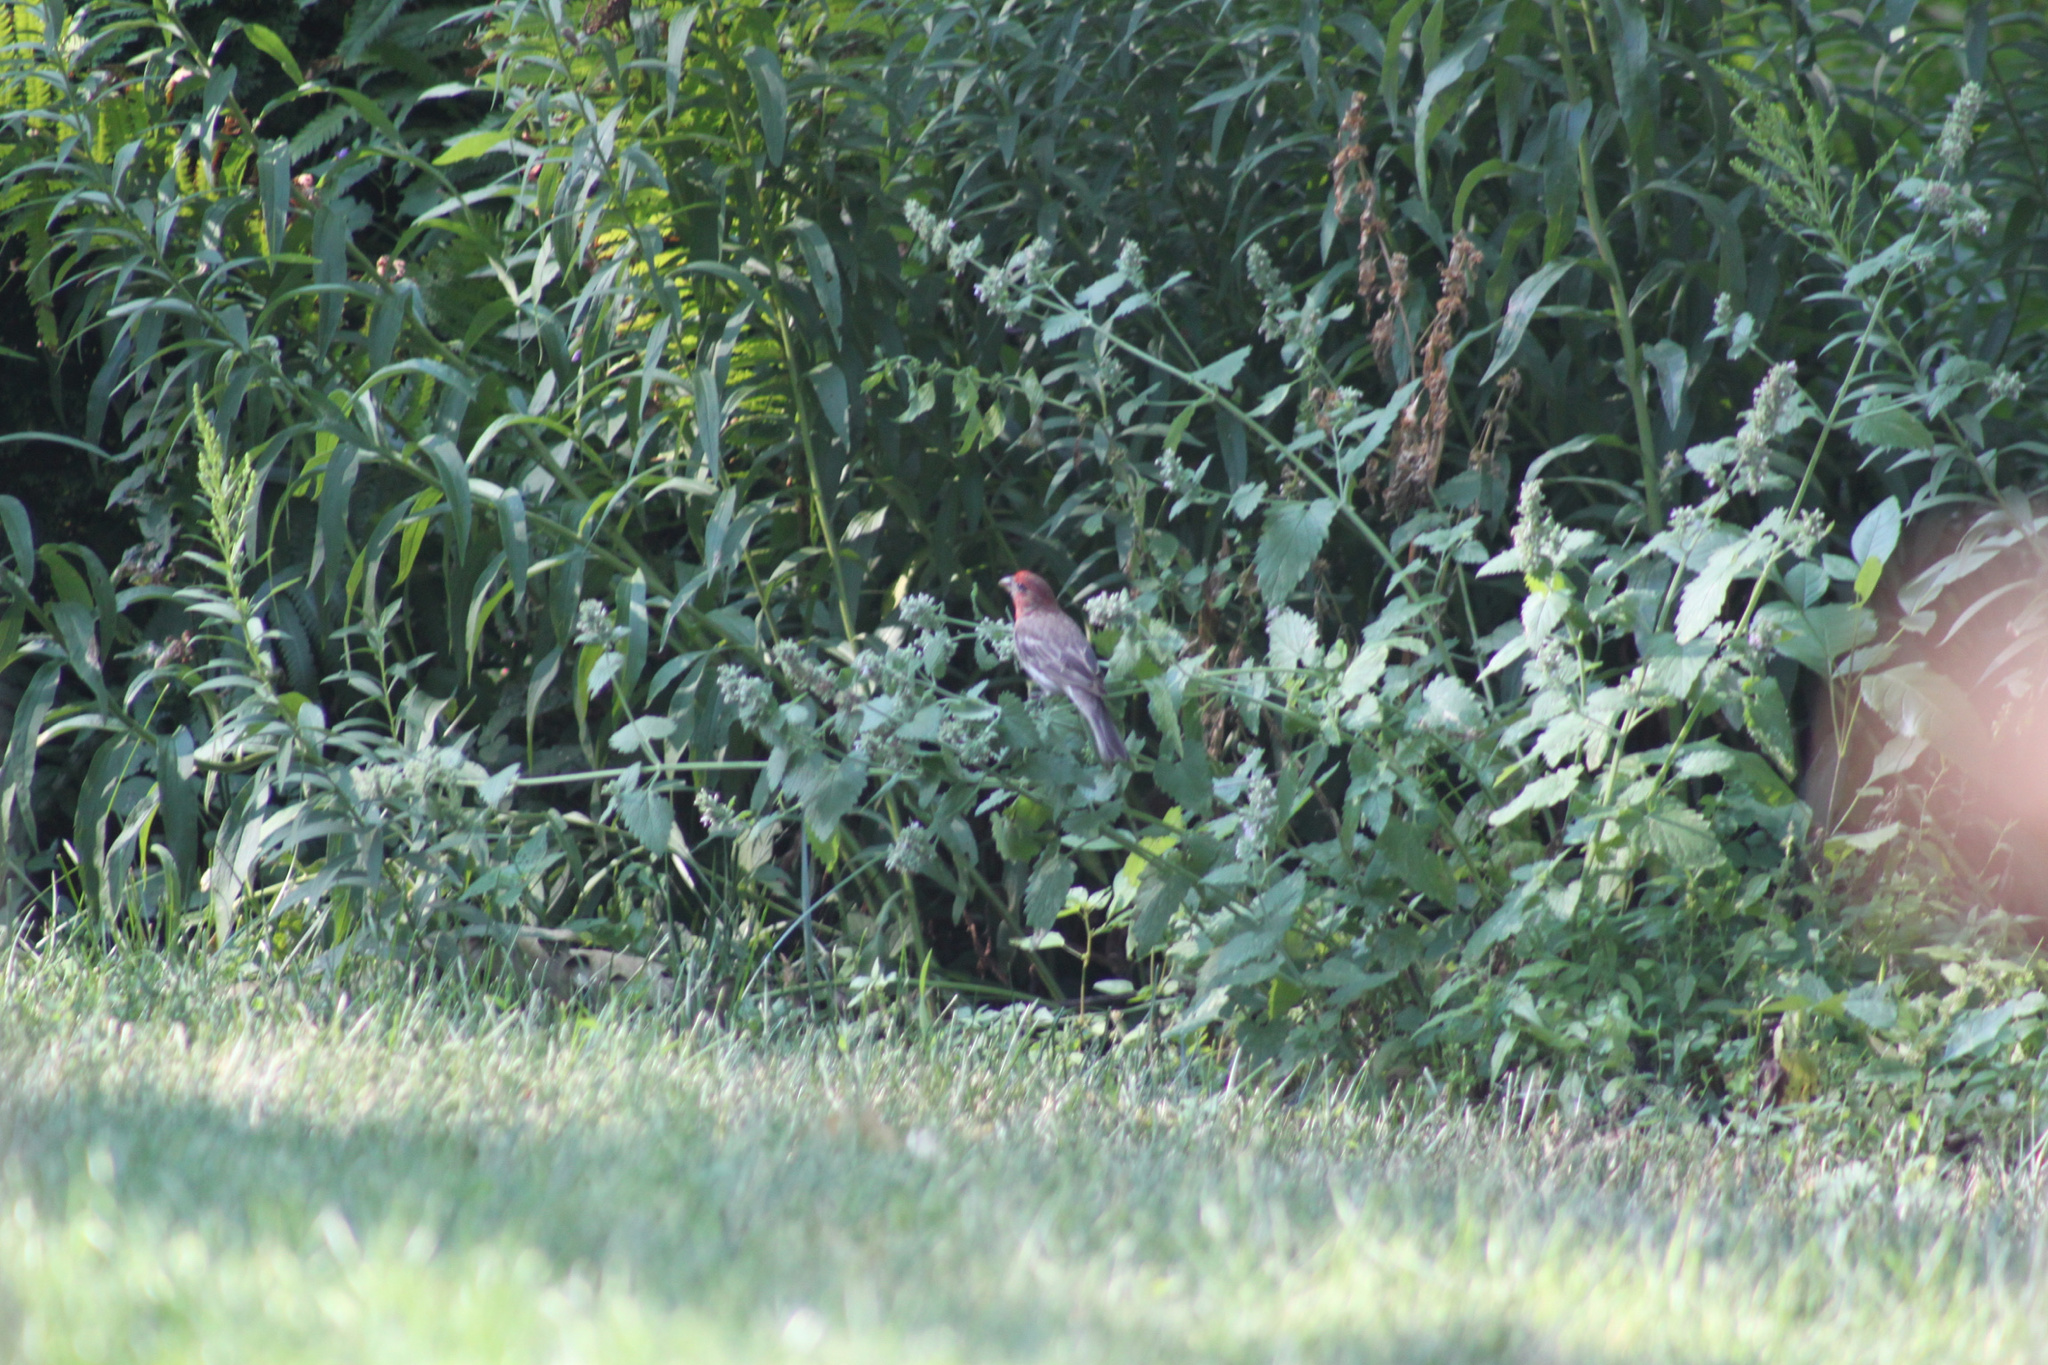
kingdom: Animalia
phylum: Chordata
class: Aves
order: Passeriformes
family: Fringillidae
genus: Haemorhous
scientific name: Haemorhous mexicanus
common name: House finch
